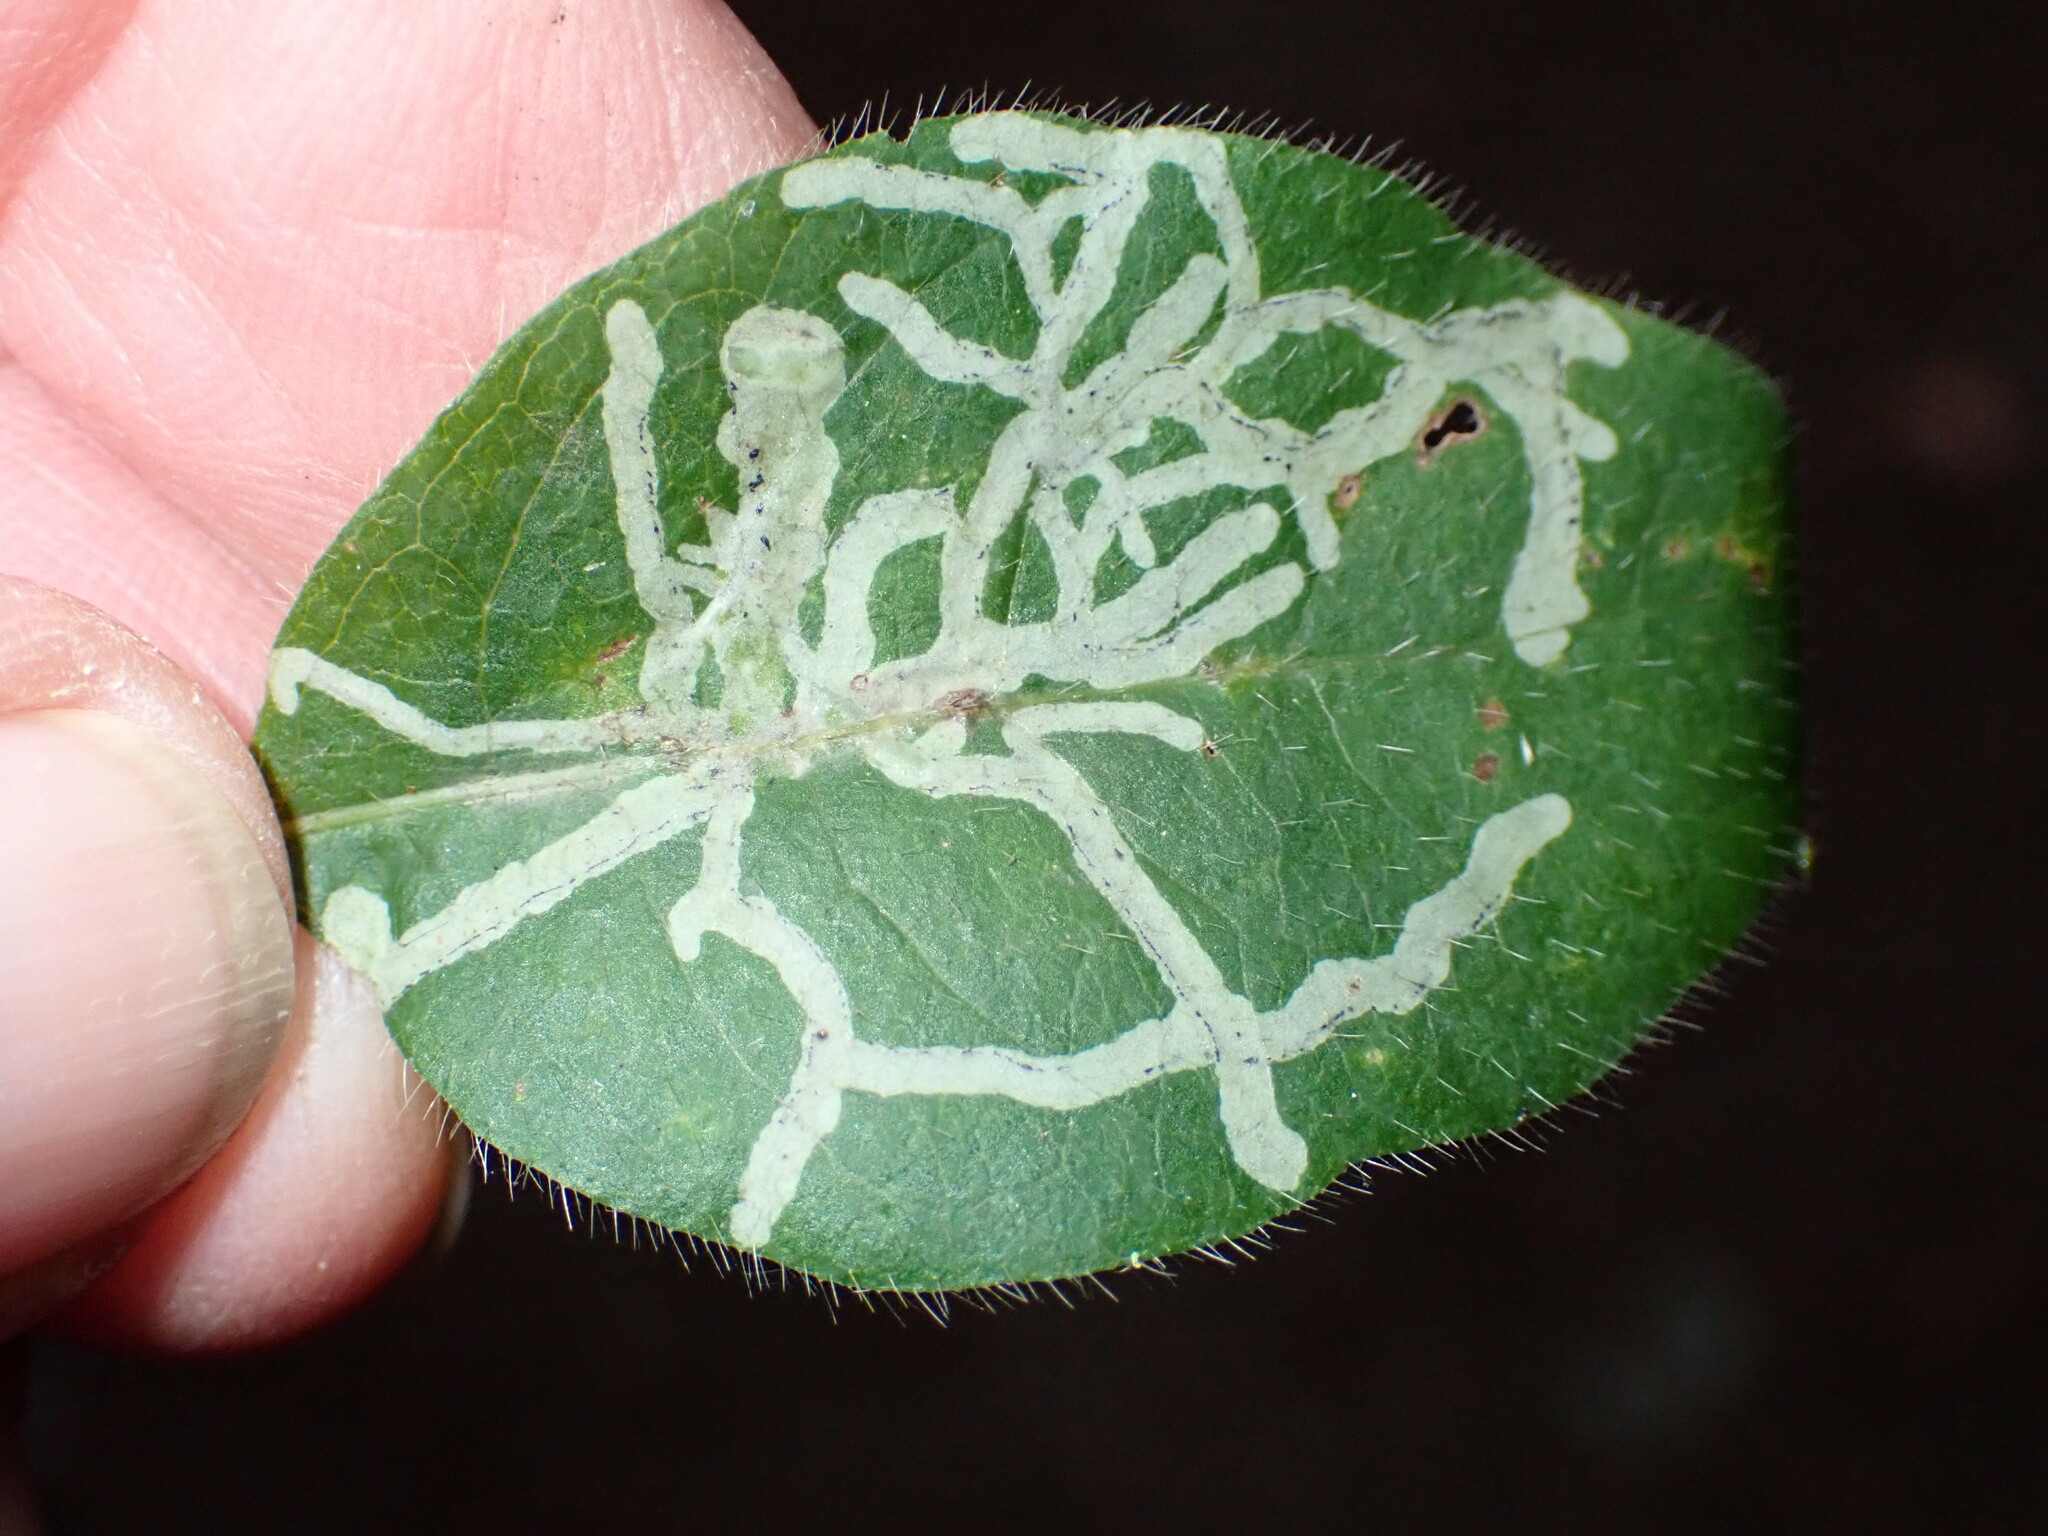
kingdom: Animalia
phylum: Arthropoda
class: Insecta
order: Diptera
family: Agromyzidae
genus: Phytomyza
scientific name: Phytomyza aprilina
